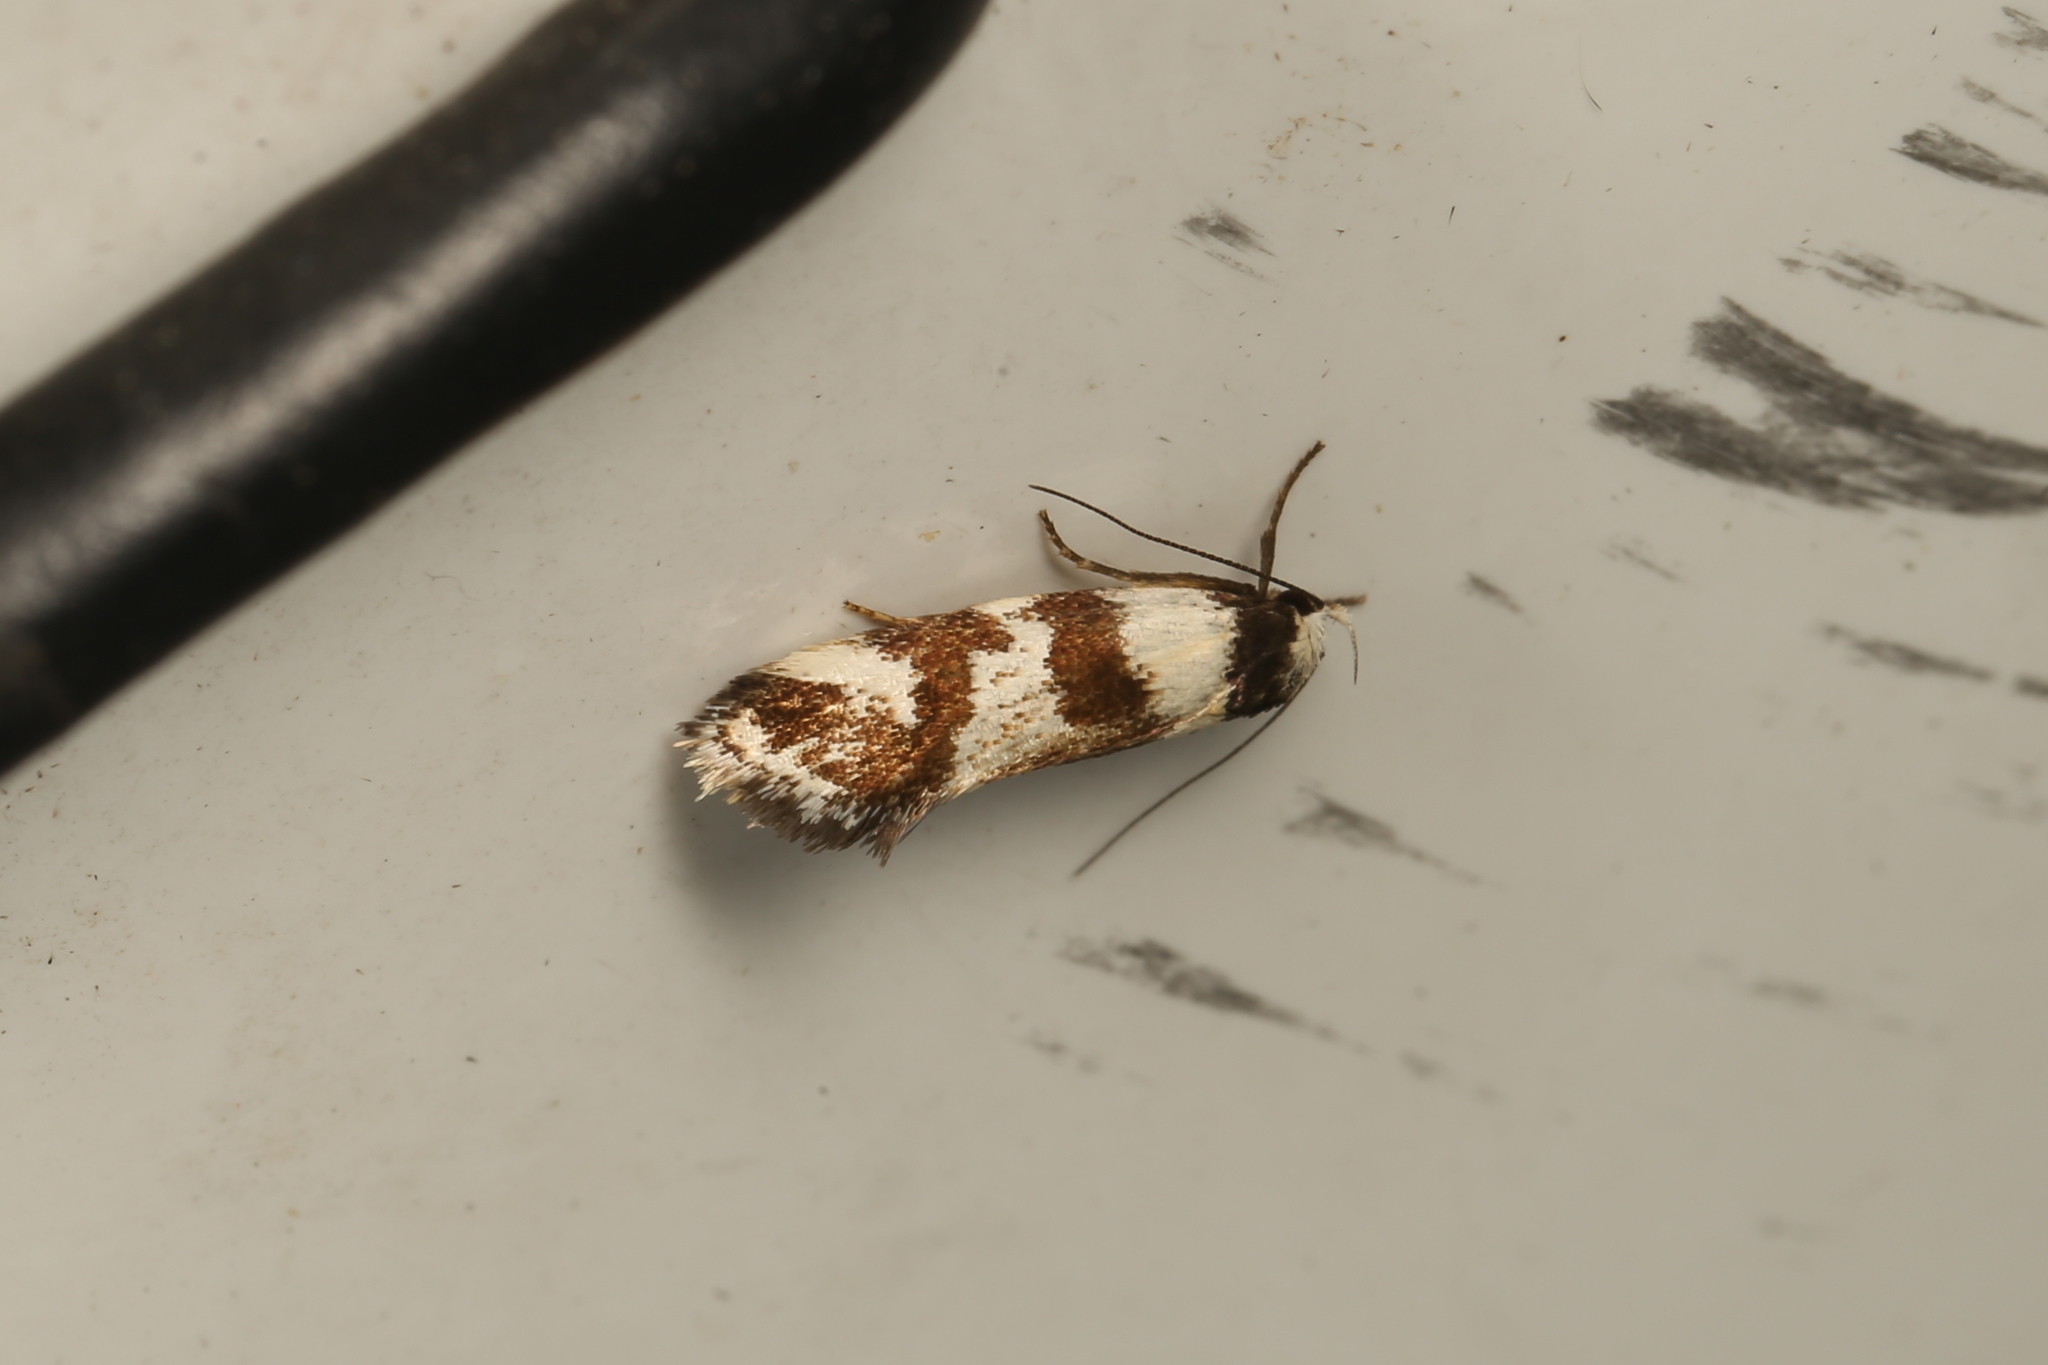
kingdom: Animalia
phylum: Arthropoda
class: Insecta
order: Lepidoptera
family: Oecophoridae
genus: Isomoralla
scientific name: Isomoralla eriscota
